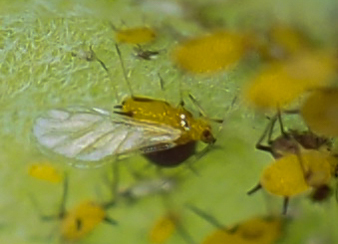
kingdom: Animalia
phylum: Arthropoda
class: Insecta
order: Hemiptera
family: Aphididae
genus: Aphis
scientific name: Aphis nerii
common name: Oleander aphid
